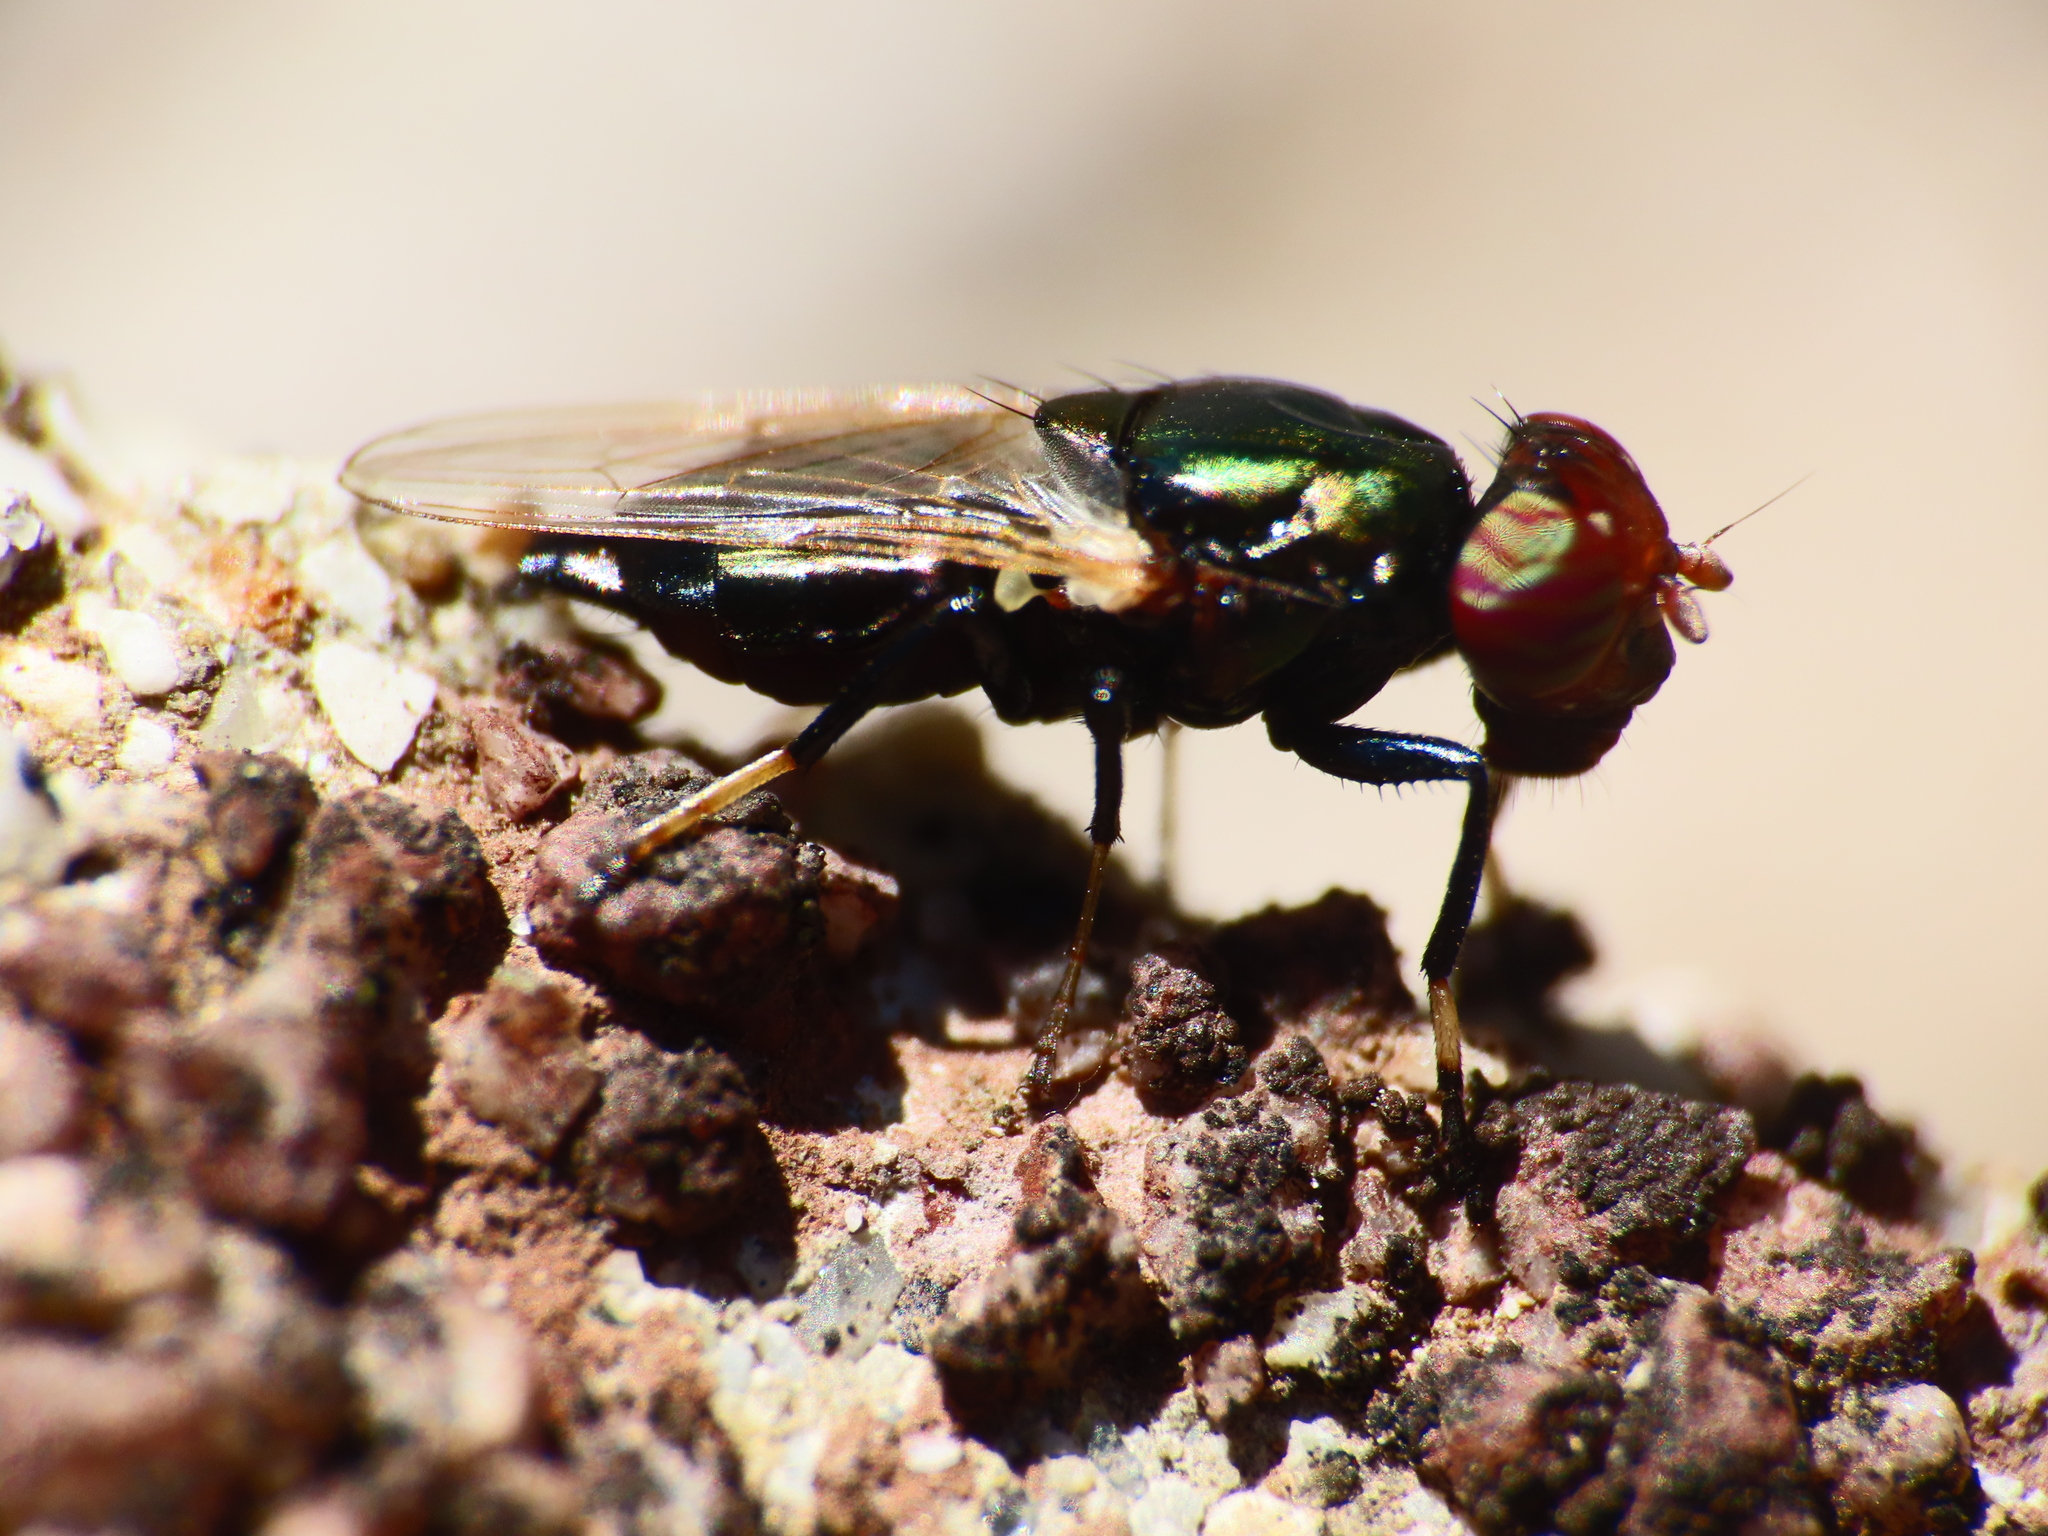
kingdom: Animalia
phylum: Arthropoda
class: Insecta
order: Diptera
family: Ulidiidae
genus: Physiphora
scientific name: Physiphora alceae
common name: Picture-winged fly
